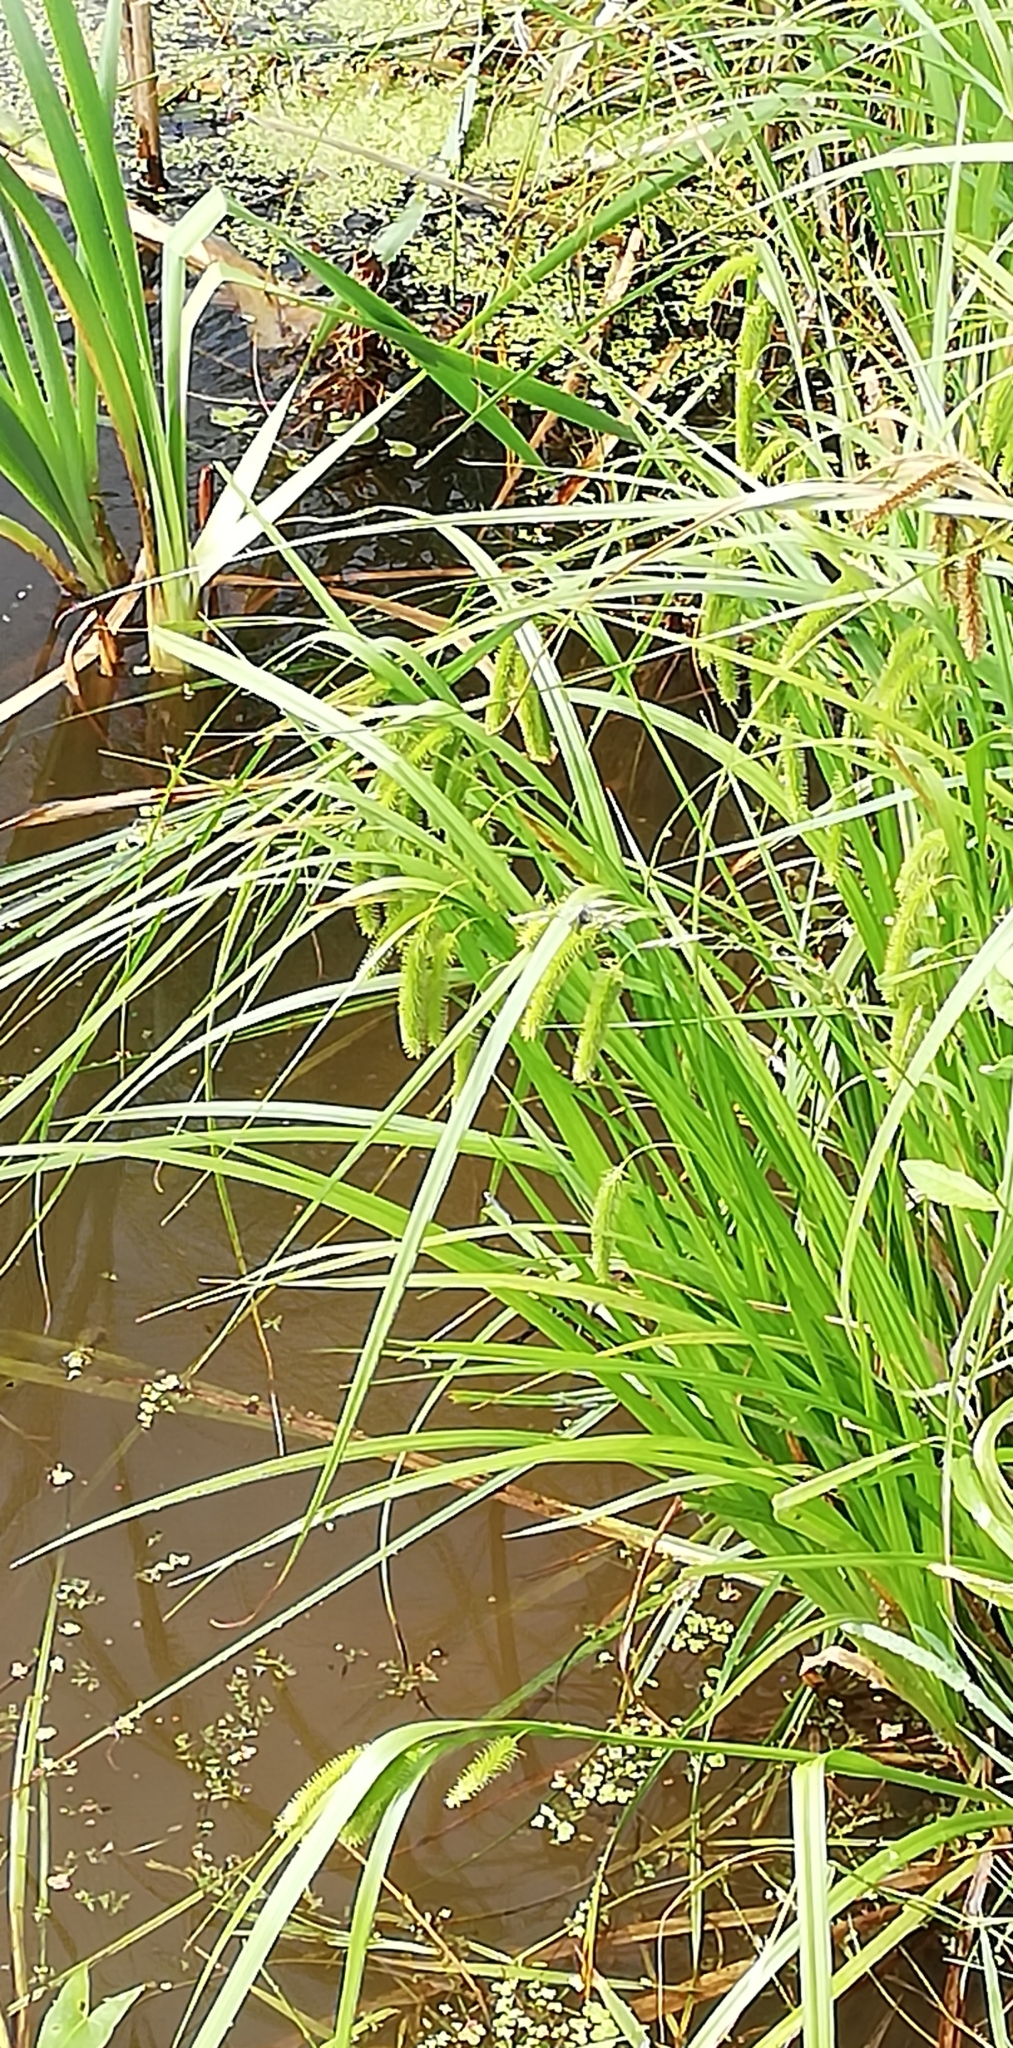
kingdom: Plantae
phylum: Tracheophyta
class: Liliopsida
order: Poales
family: Cyperaceae
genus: Carex
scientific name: Carex pseudocyperus
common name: Cyperus sedge
